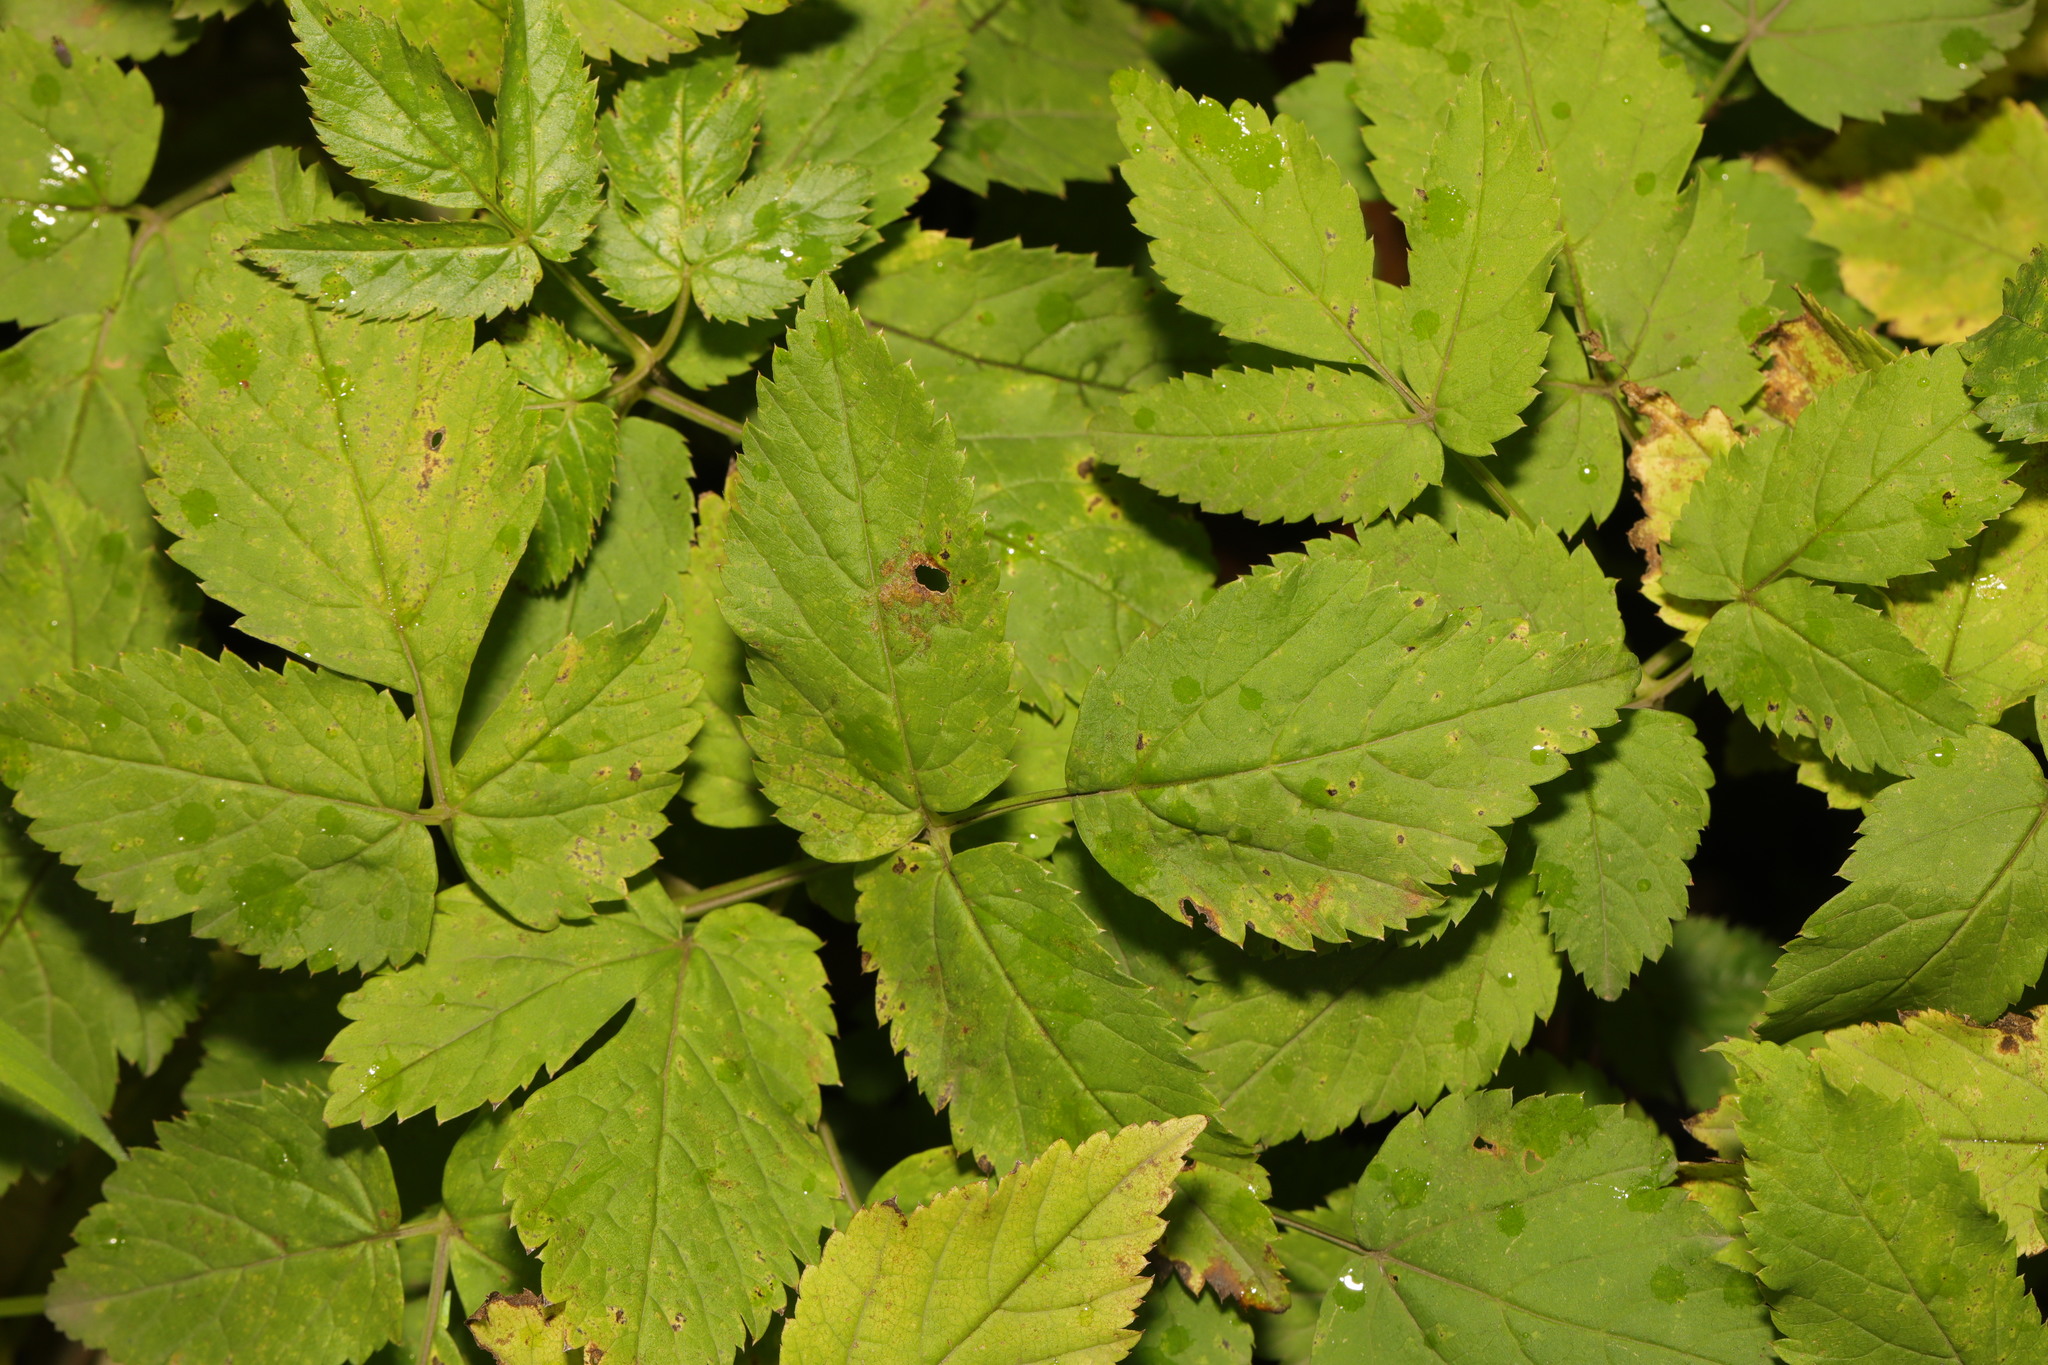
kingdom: Plantae
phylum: Tracheophyta
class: Magnoliopsida
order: Apiales
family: Apiaceae
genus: Aegopodium
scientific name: Aegopodium podagraria
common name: Ground-elder
